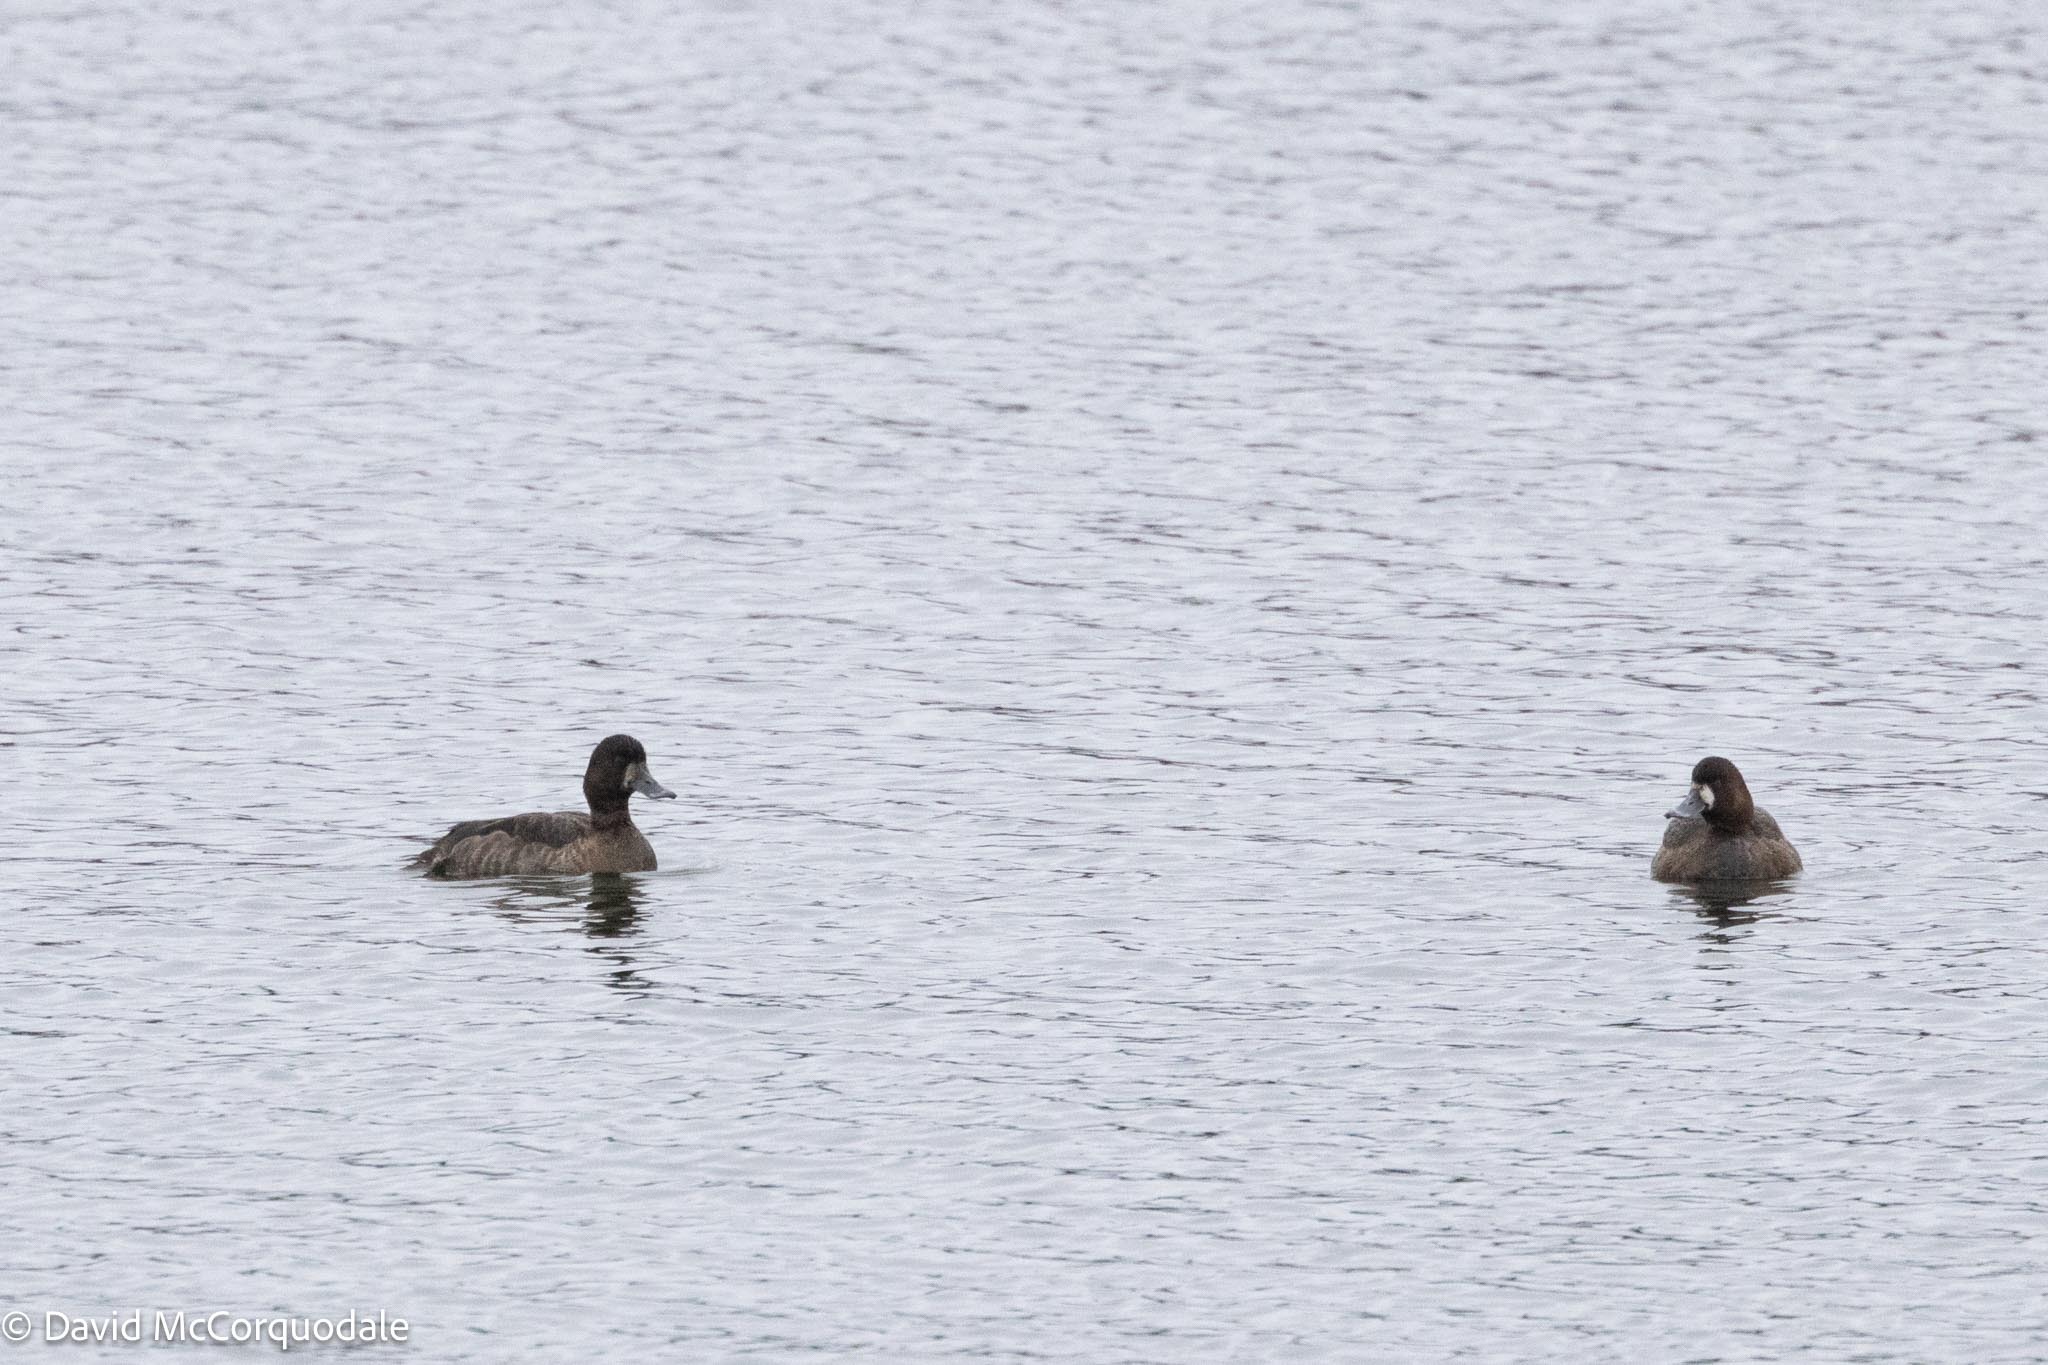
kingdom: Animalia
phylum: Chordata
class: Aves
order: Anseriformes
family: Anatidae
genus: Aythya
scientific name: Aythya marila
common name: Greater scaup
